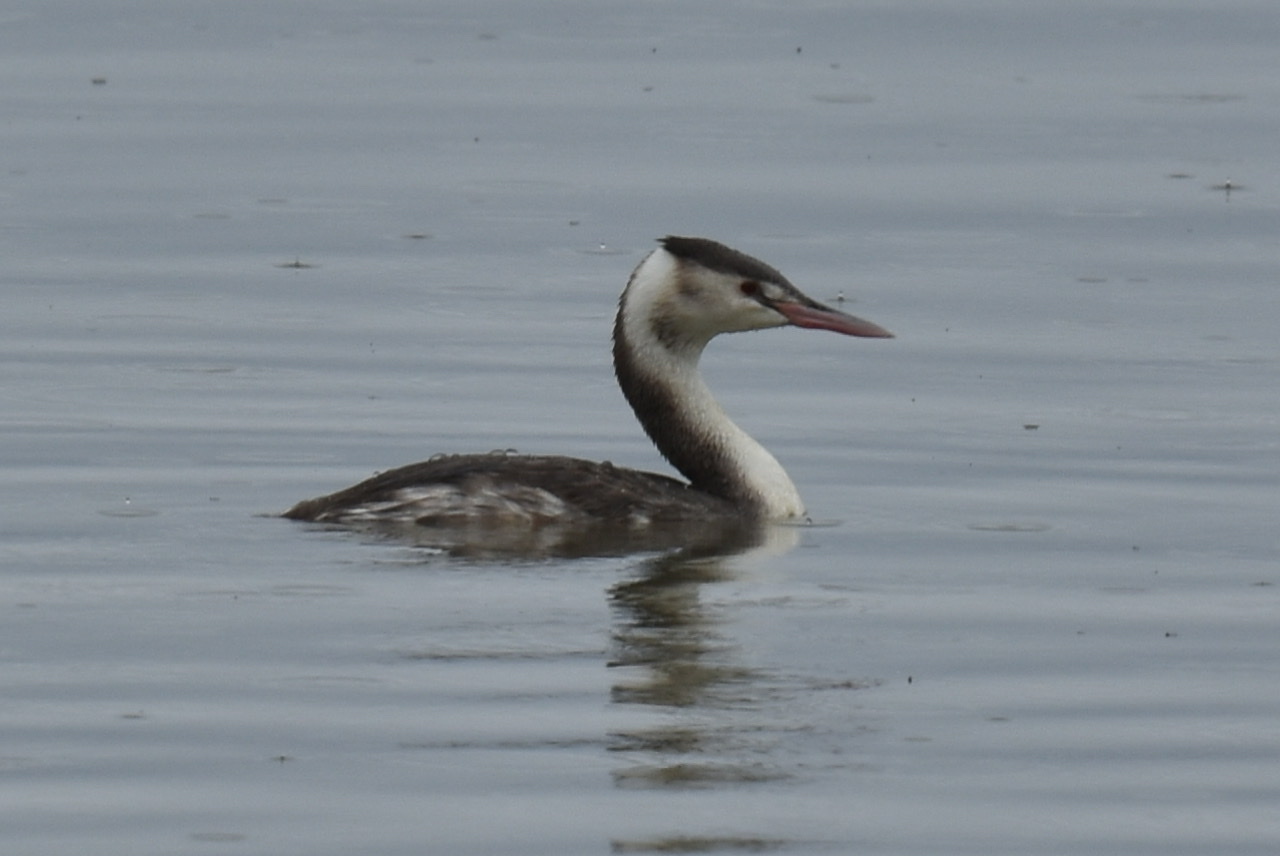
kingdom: Animalia
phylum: Chordata
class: Aves
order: Podicipediformes
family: Podicipedidae
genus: Podiceps
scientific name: Podiceps cristatus
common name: Great crested grebe
